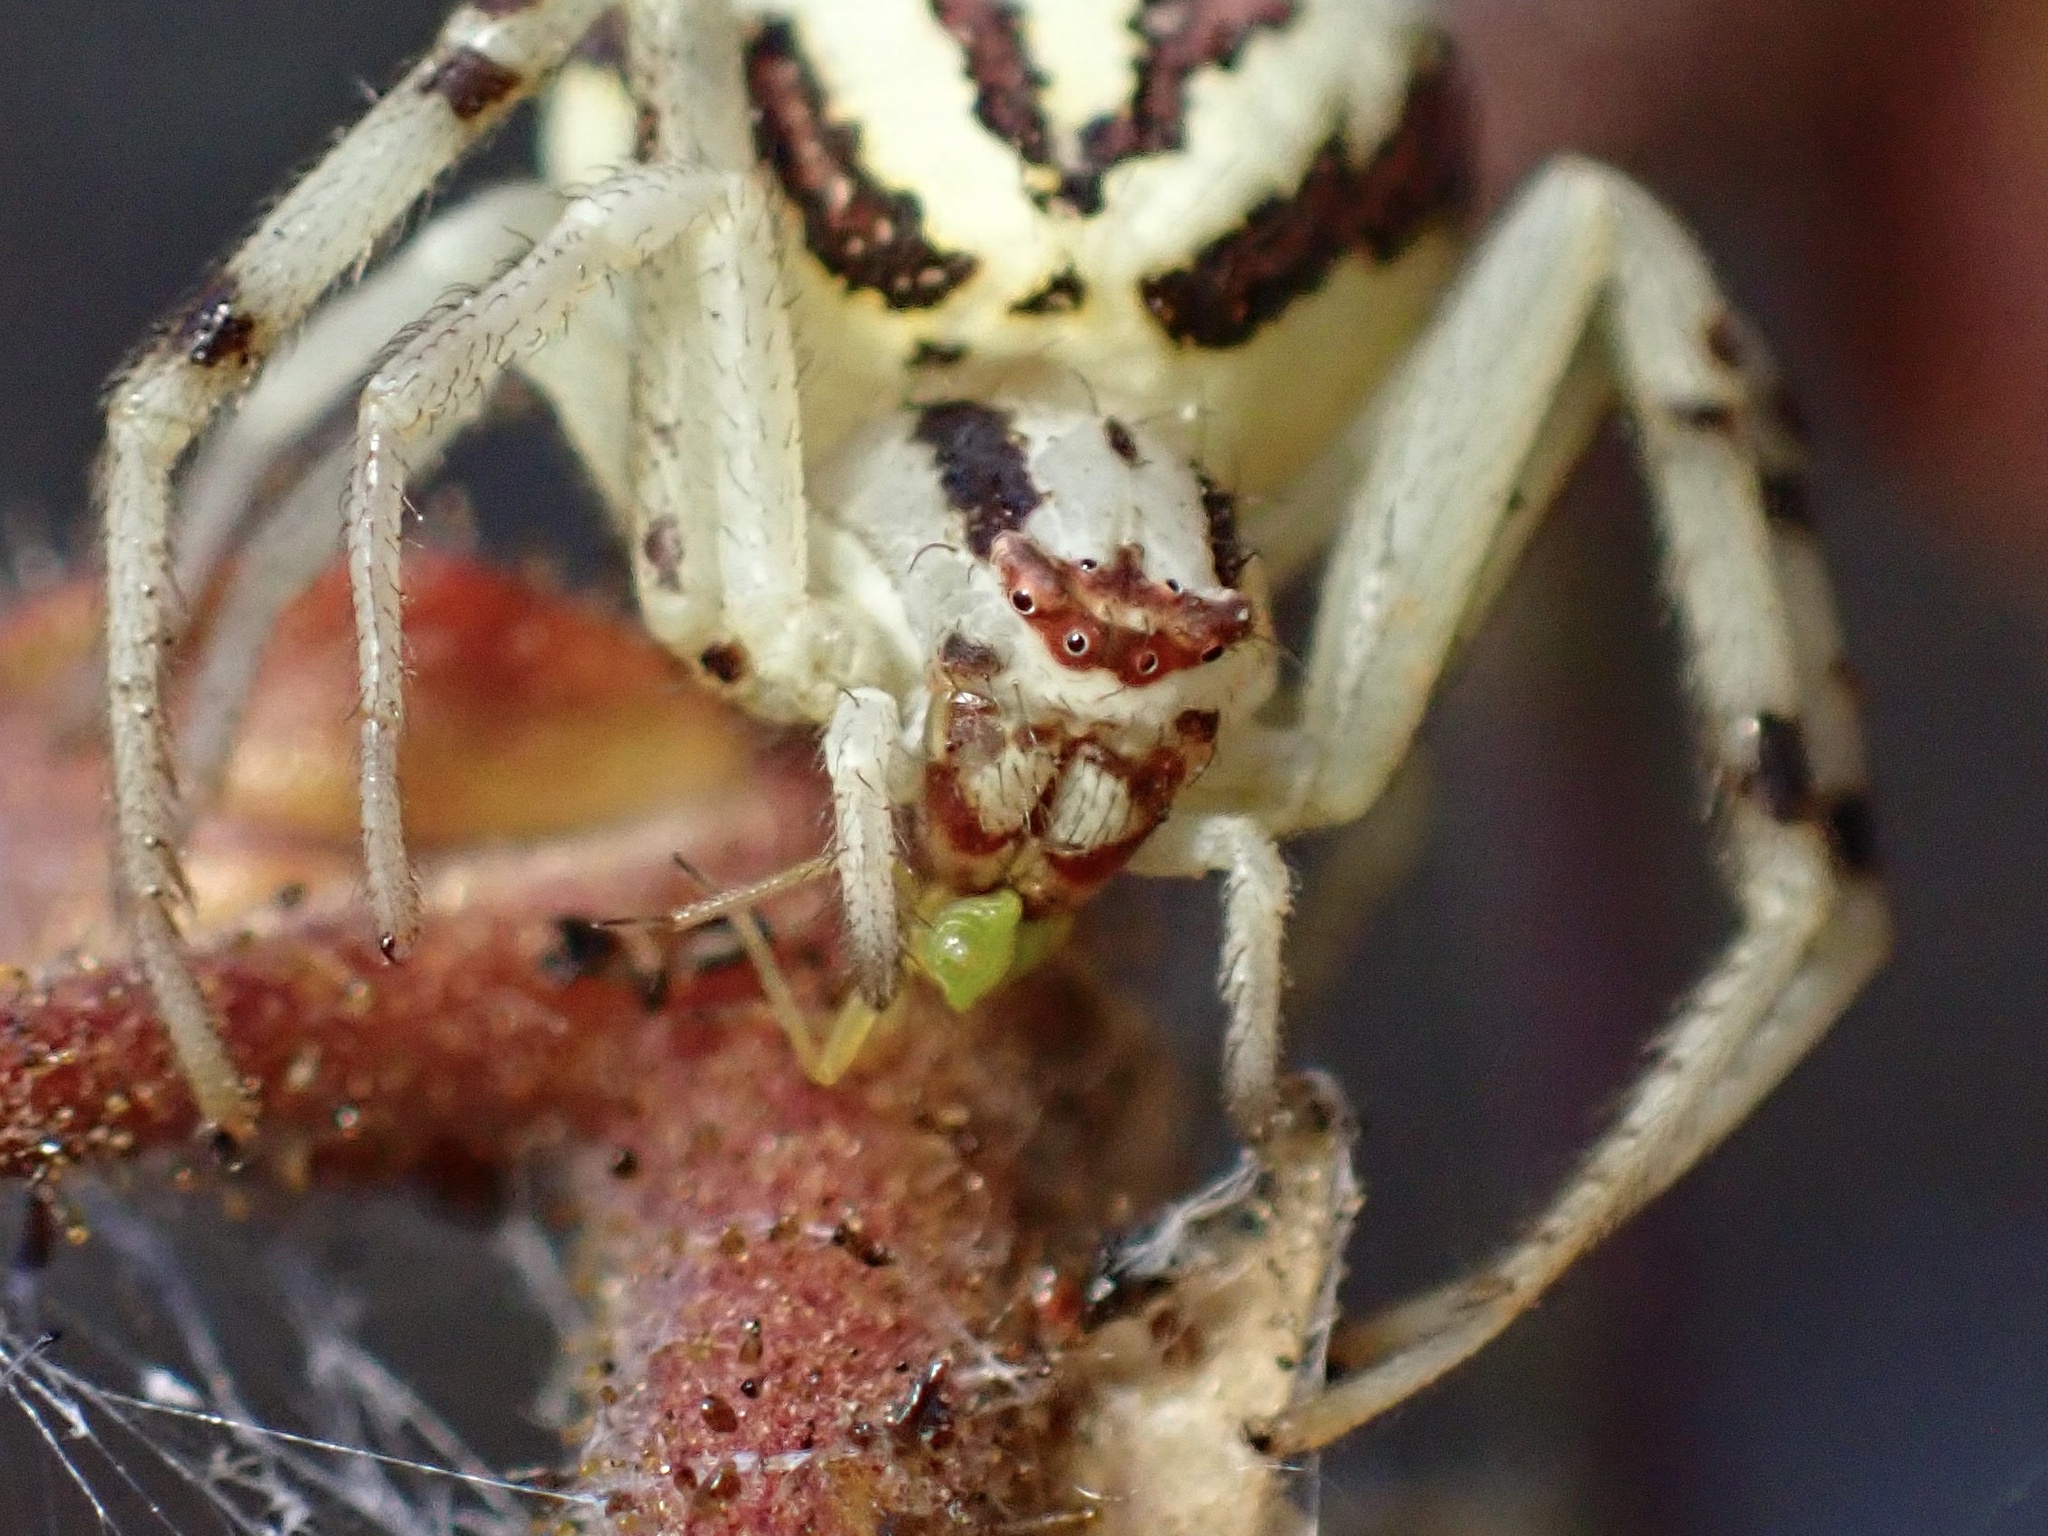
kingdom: Animalia
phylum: Arthropoda
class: Arachnida
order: Araneae
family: Thomisidae
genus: Mecaphesa
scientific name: Mecaphesa schlingeri
